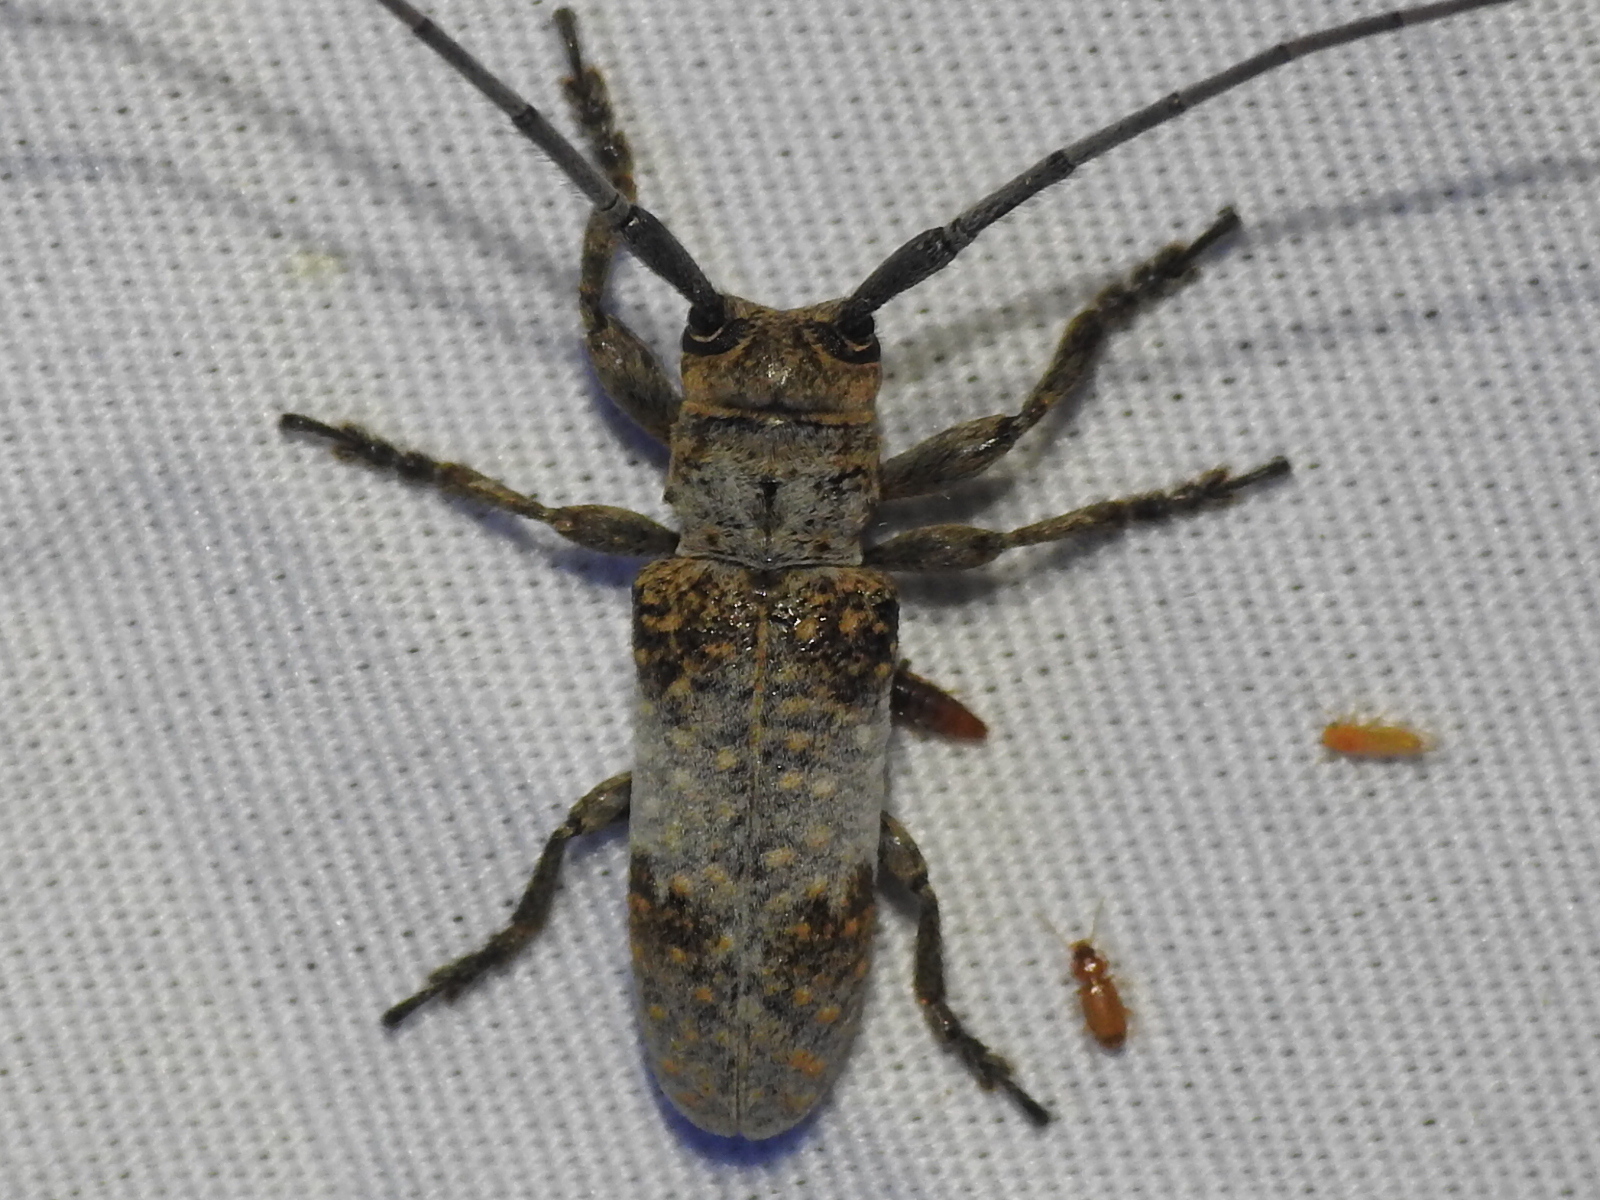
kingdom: Animalia
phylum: Arthropoda
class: Insecta
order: Coleoptera
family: Cerambycidae
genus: Oncideres
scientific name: Oncideres cingulata
